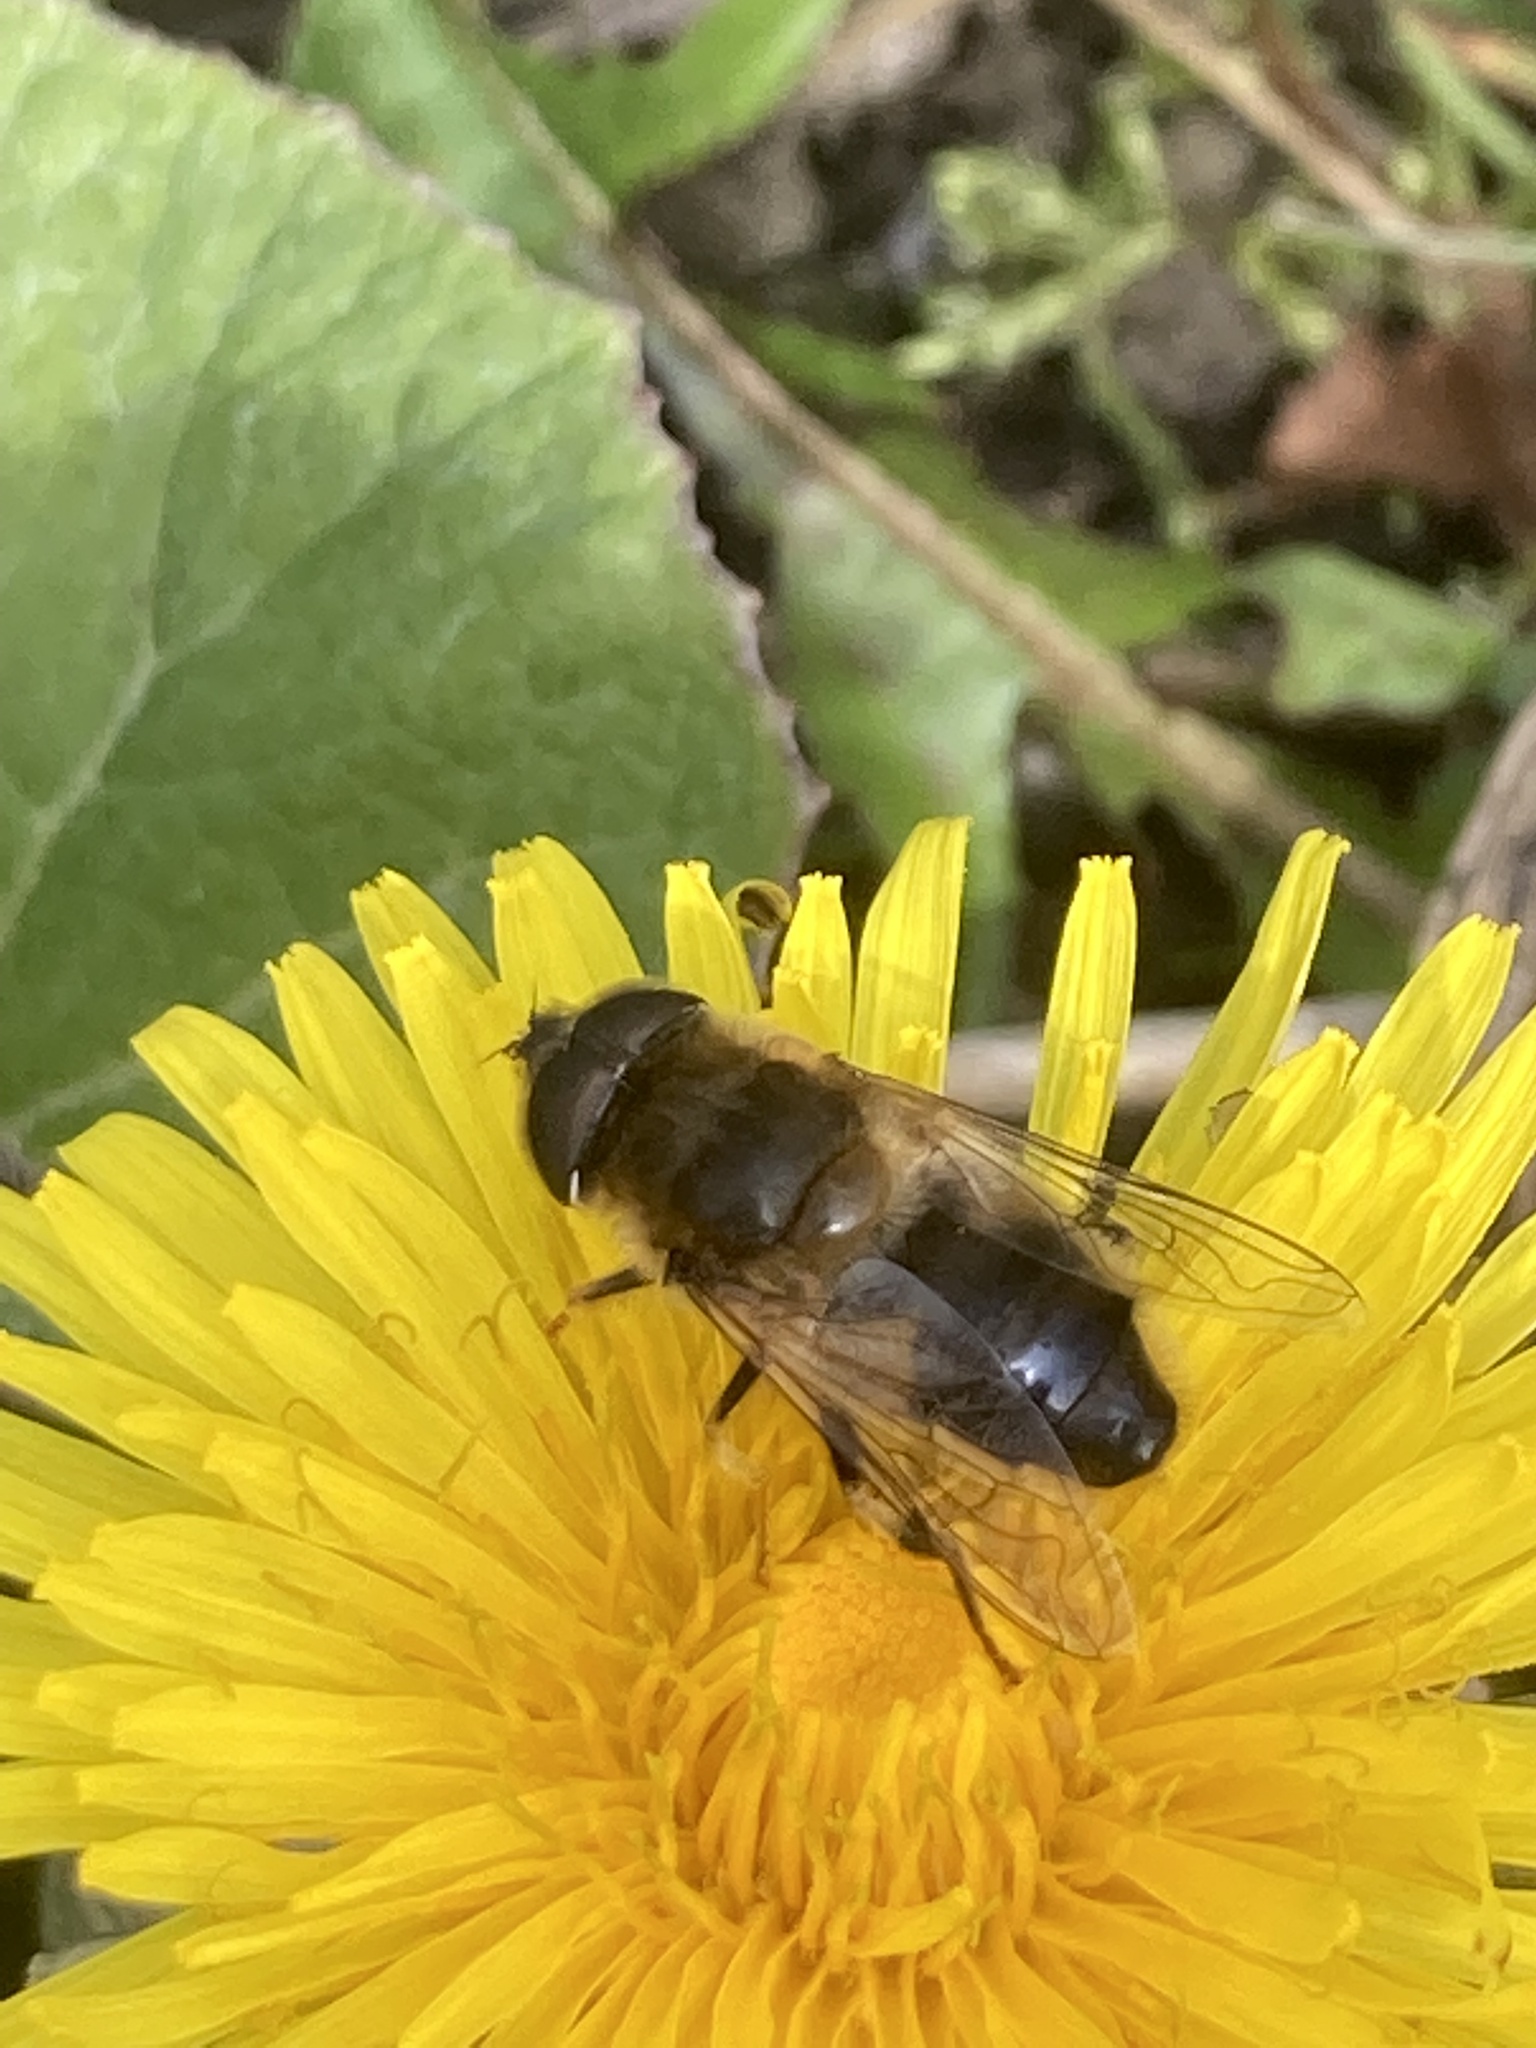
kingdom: Animalia
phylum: Arthropoda
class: Insecta
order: Diptera
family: Syrphidae
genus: Eristalis
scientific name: Eristalis pertinax
